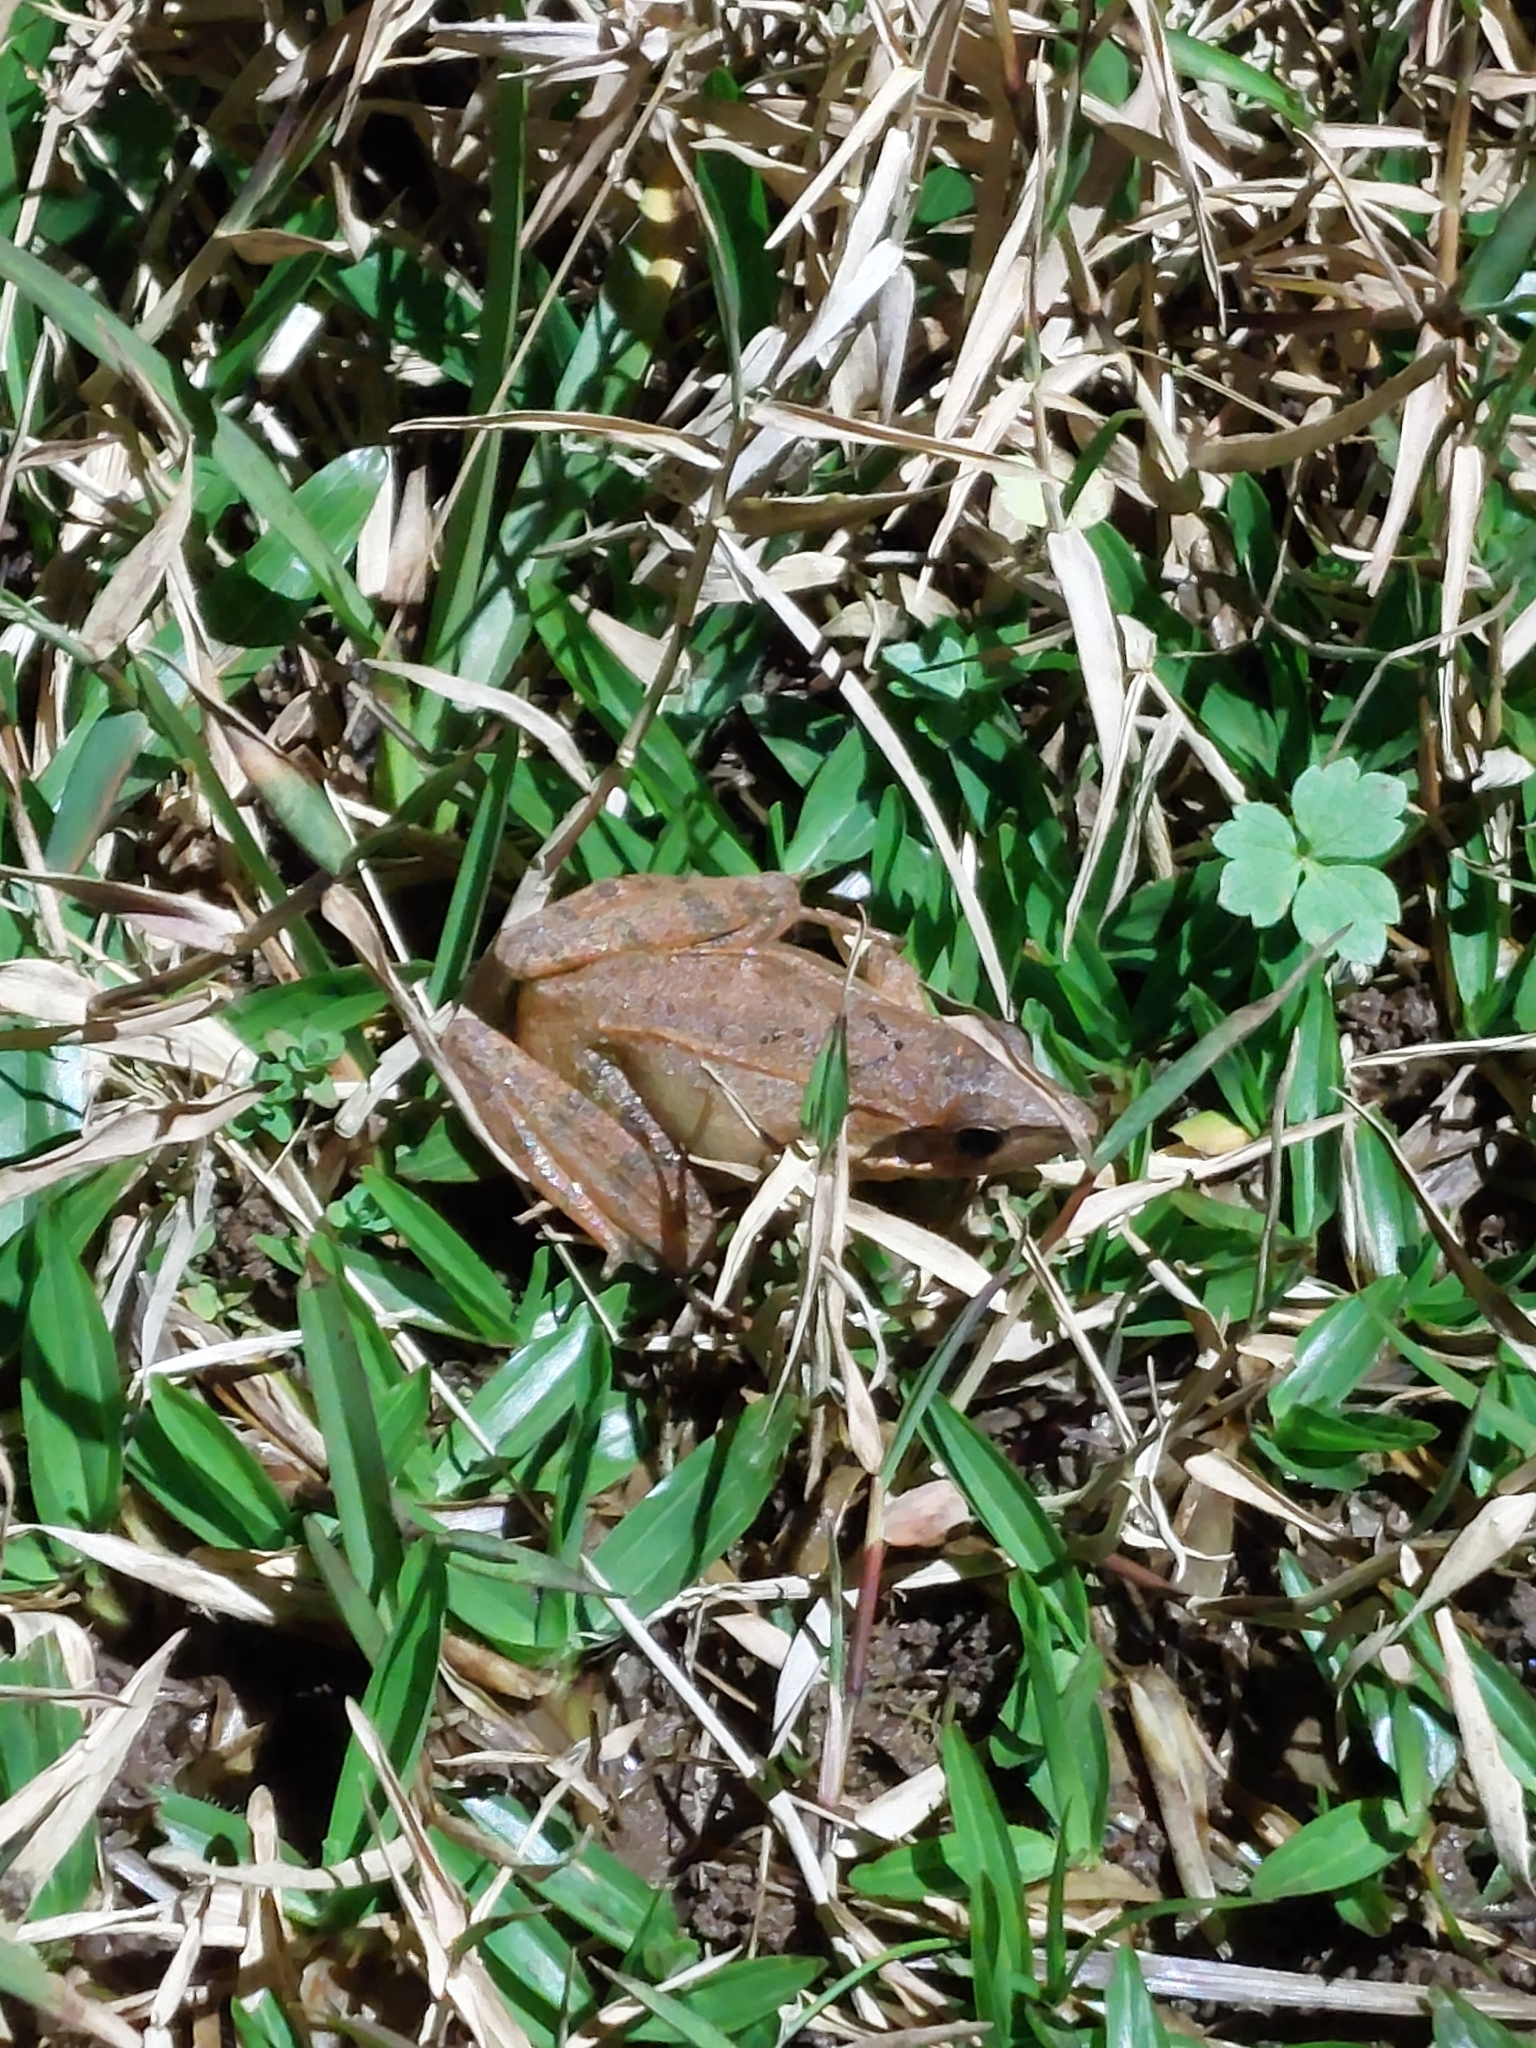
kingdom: Animalia
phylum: Chordata
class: Amphibia
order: Anura
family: Ranidae
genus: Rana
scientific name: Rana longicrus
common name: Long-legged brown frog
